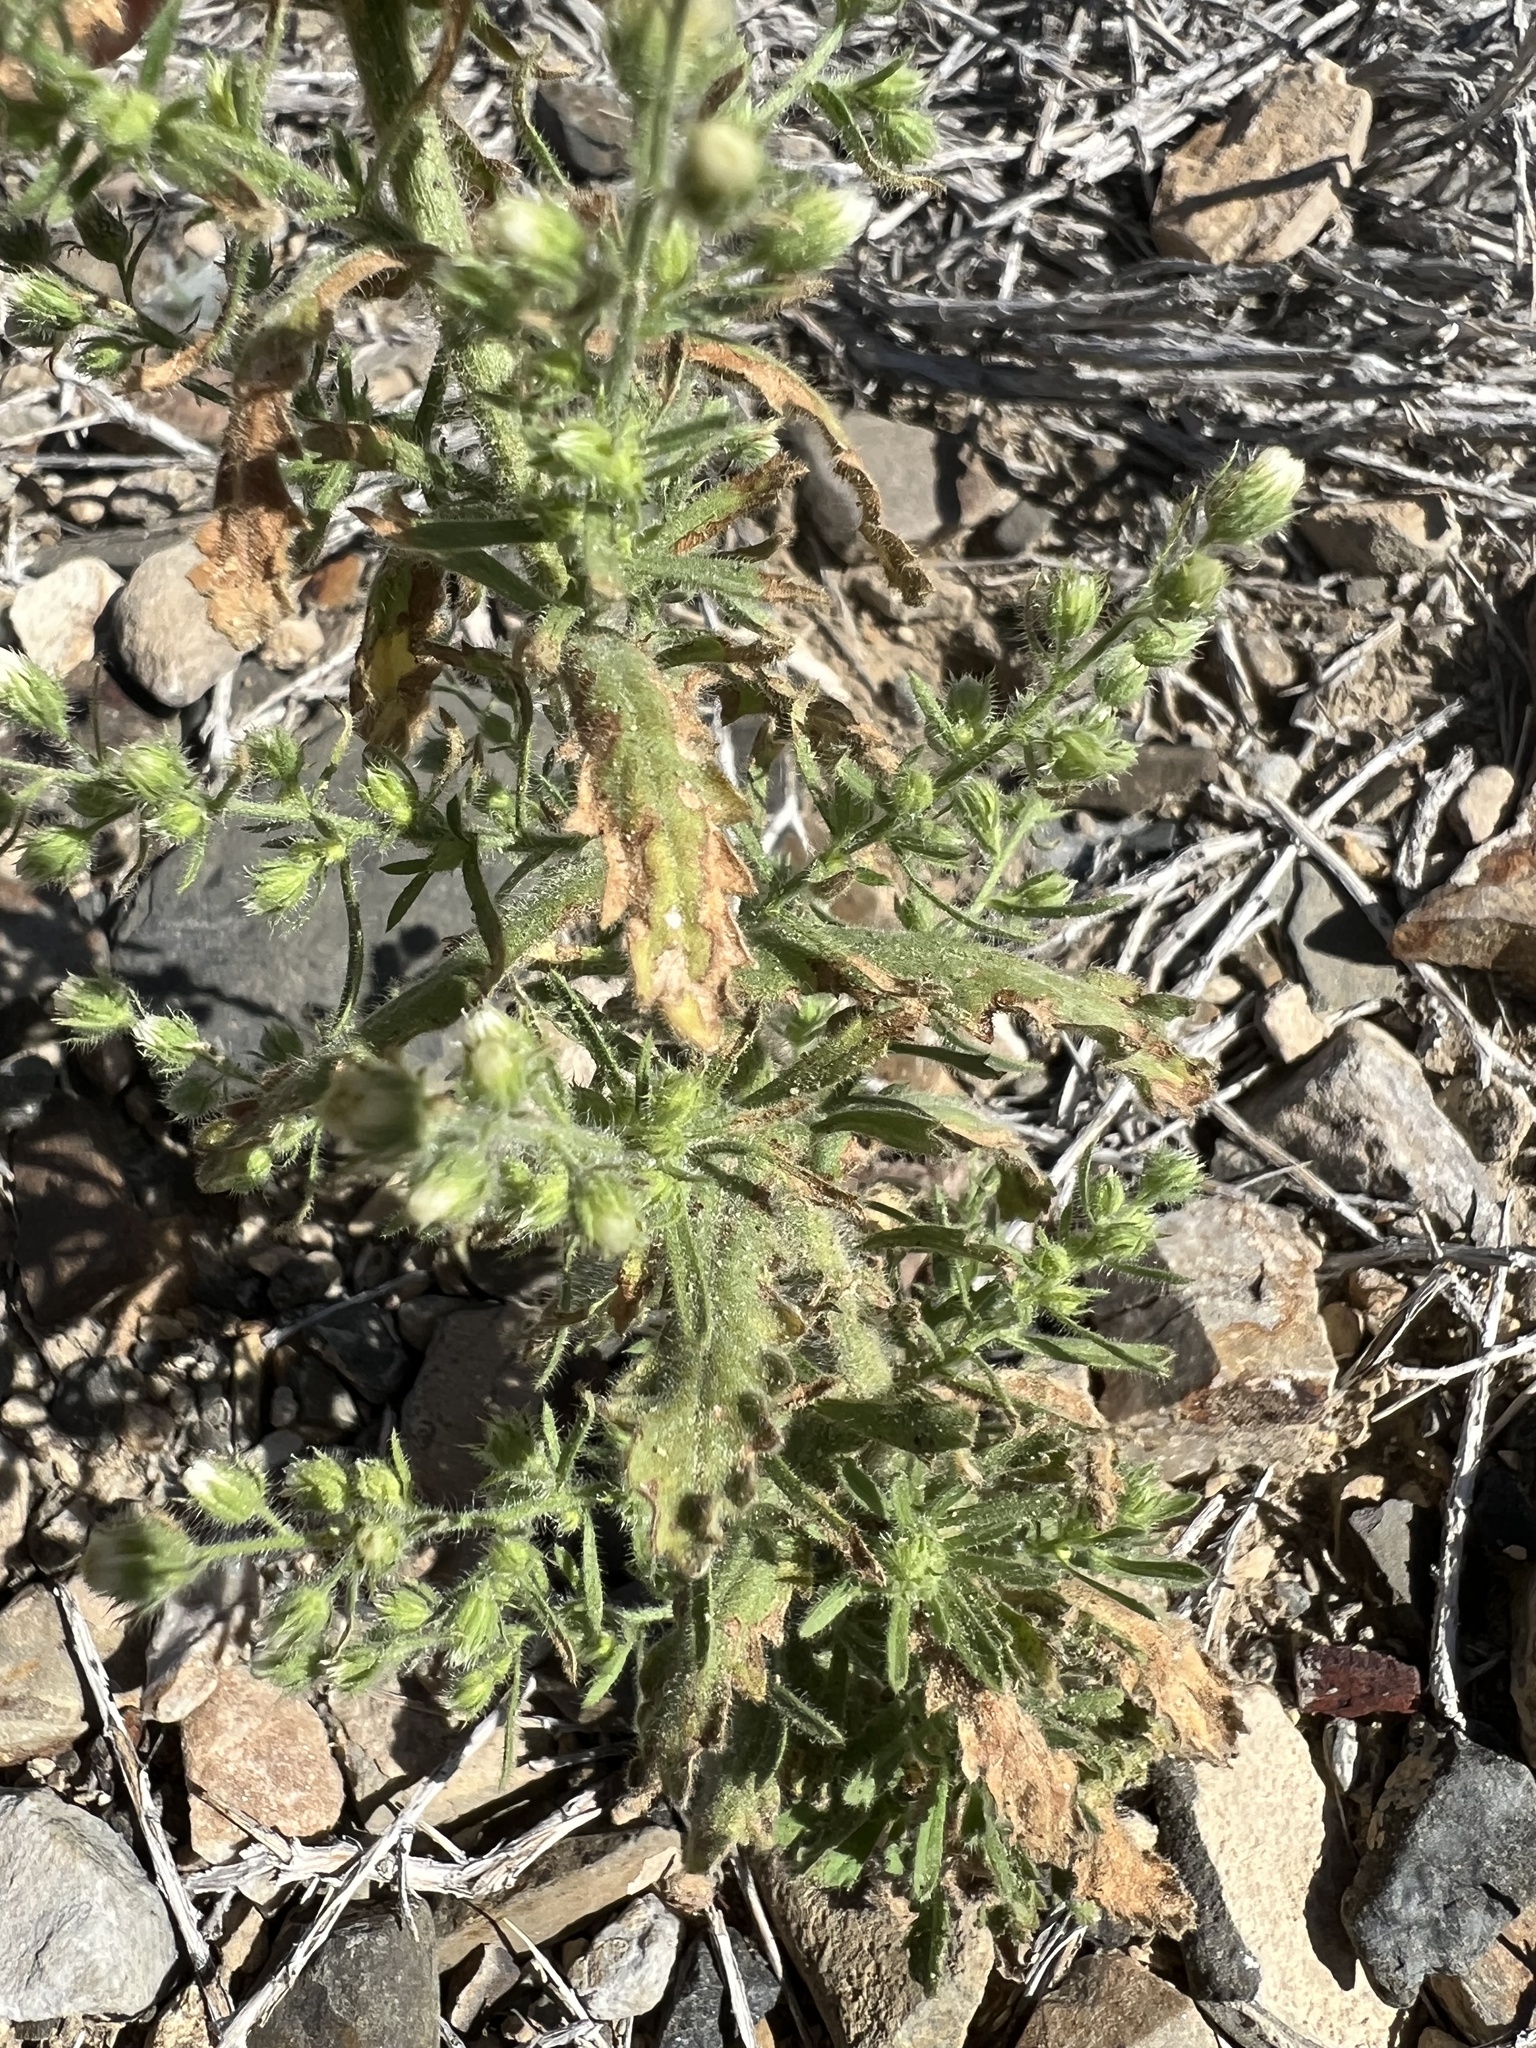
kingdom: Plantae
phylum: Tracheophyta
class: Magnoliopsida
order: Asterales
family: Asteraceae
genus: Laennecia
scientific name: Laennecia coulteri
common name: Coulter's woolwort
